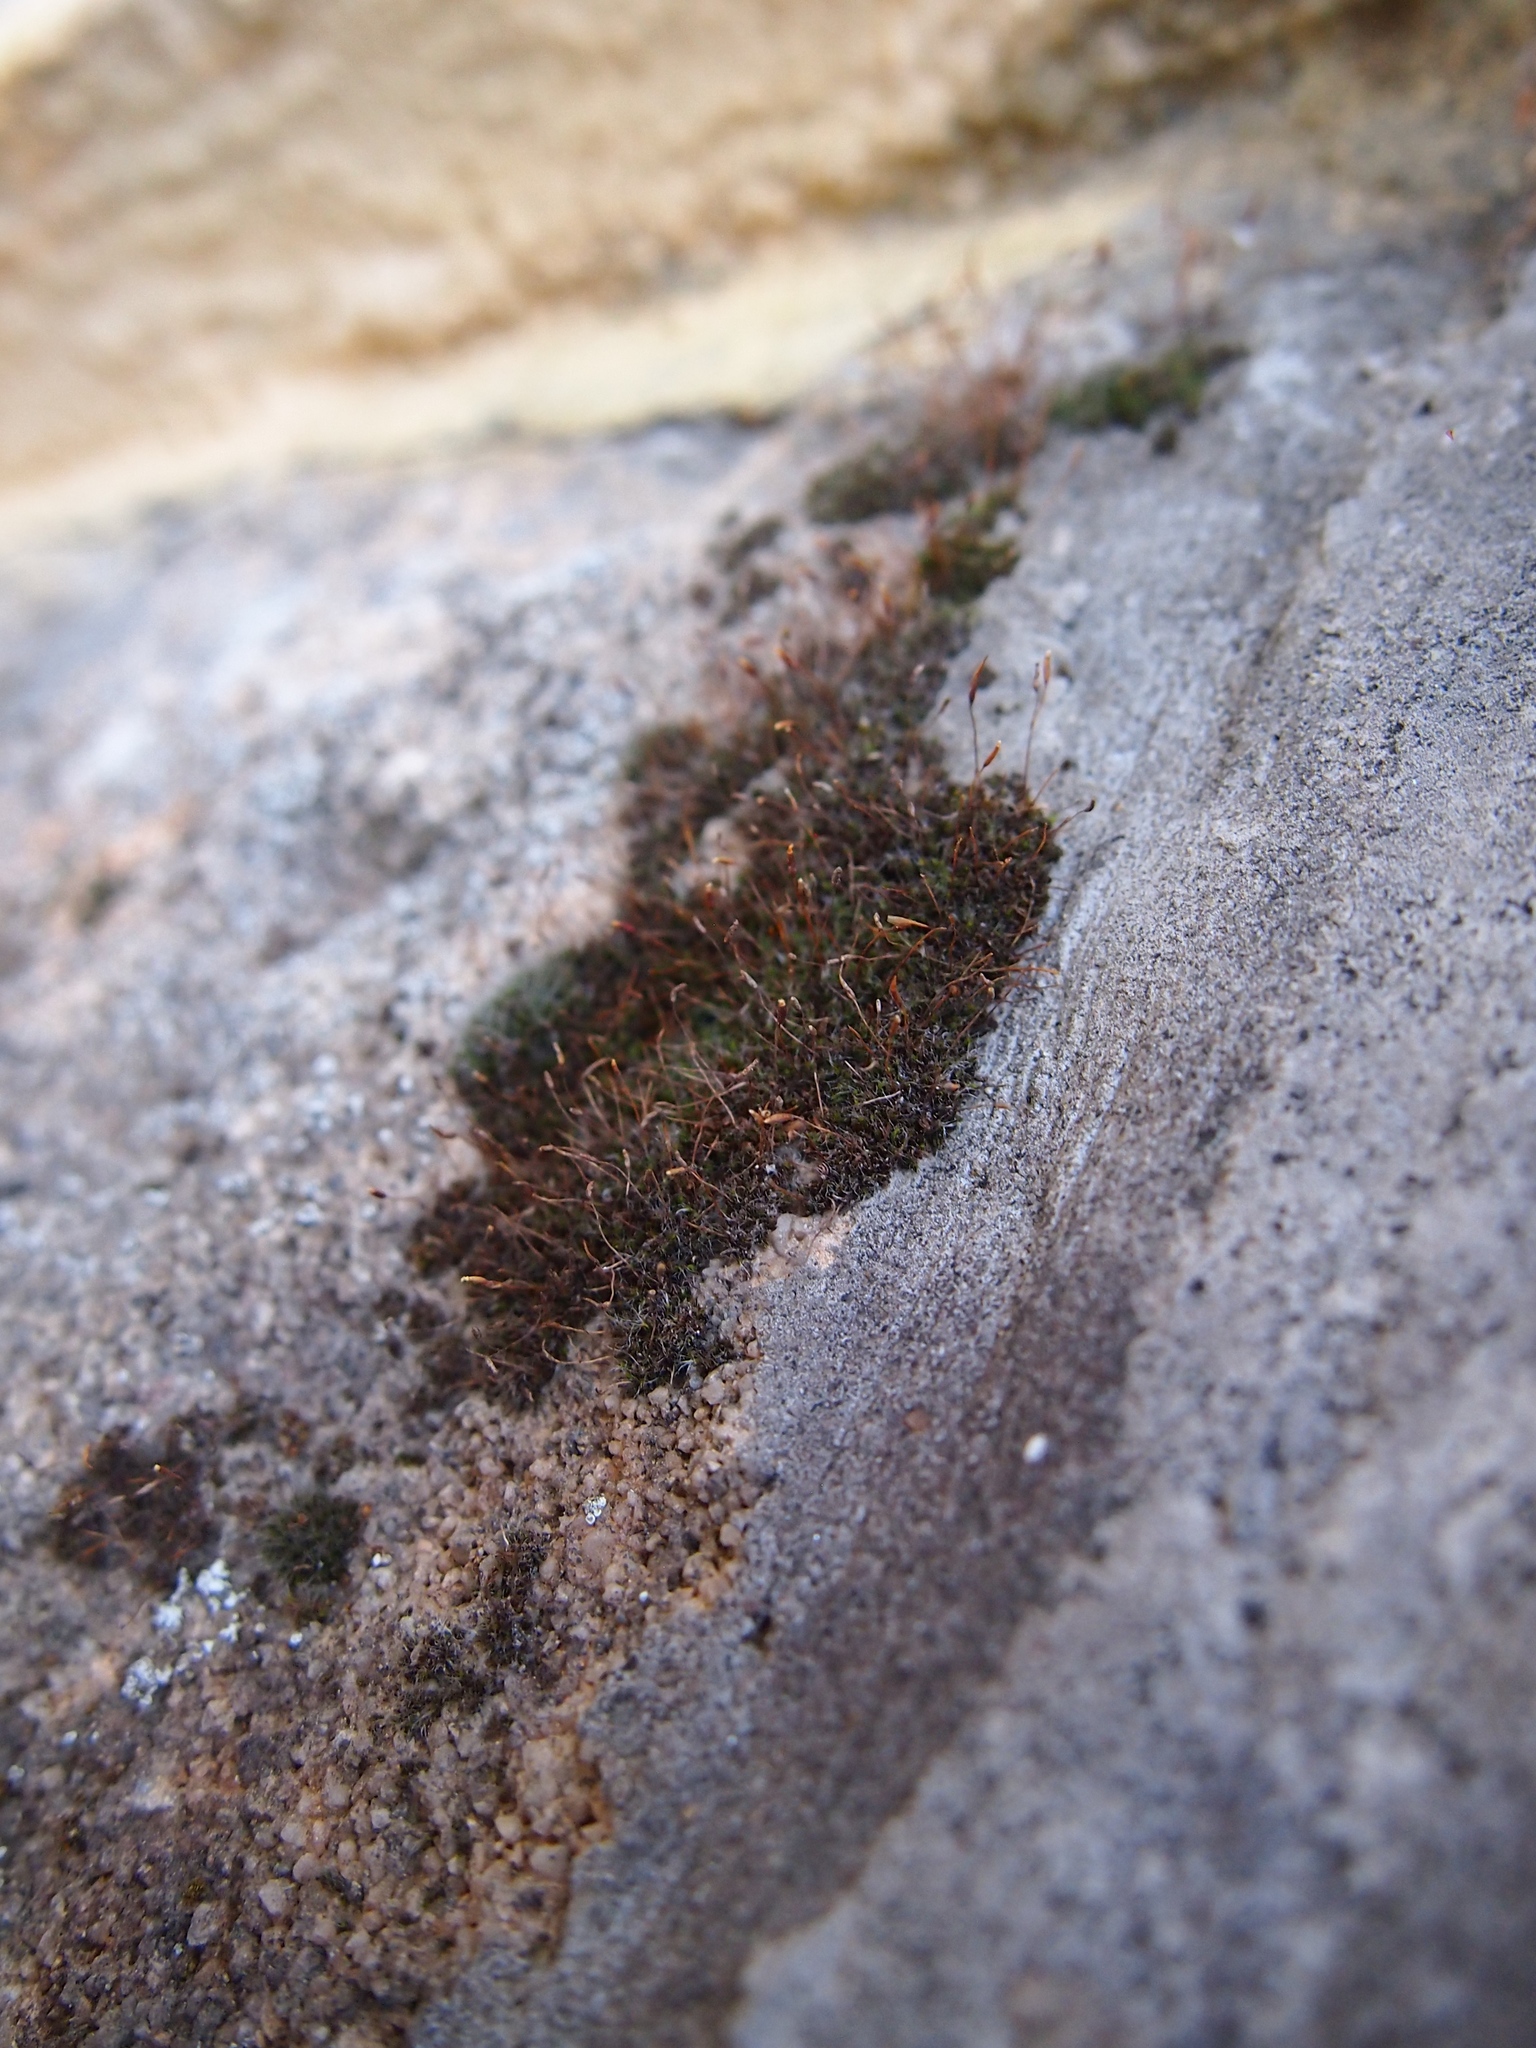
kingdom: Plantae
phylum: Bryophyta
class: Bryopsida
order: Pottiales
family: Pottiaceae
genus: Tortula
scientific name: Tortula muralis
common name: Wall screw-moss
